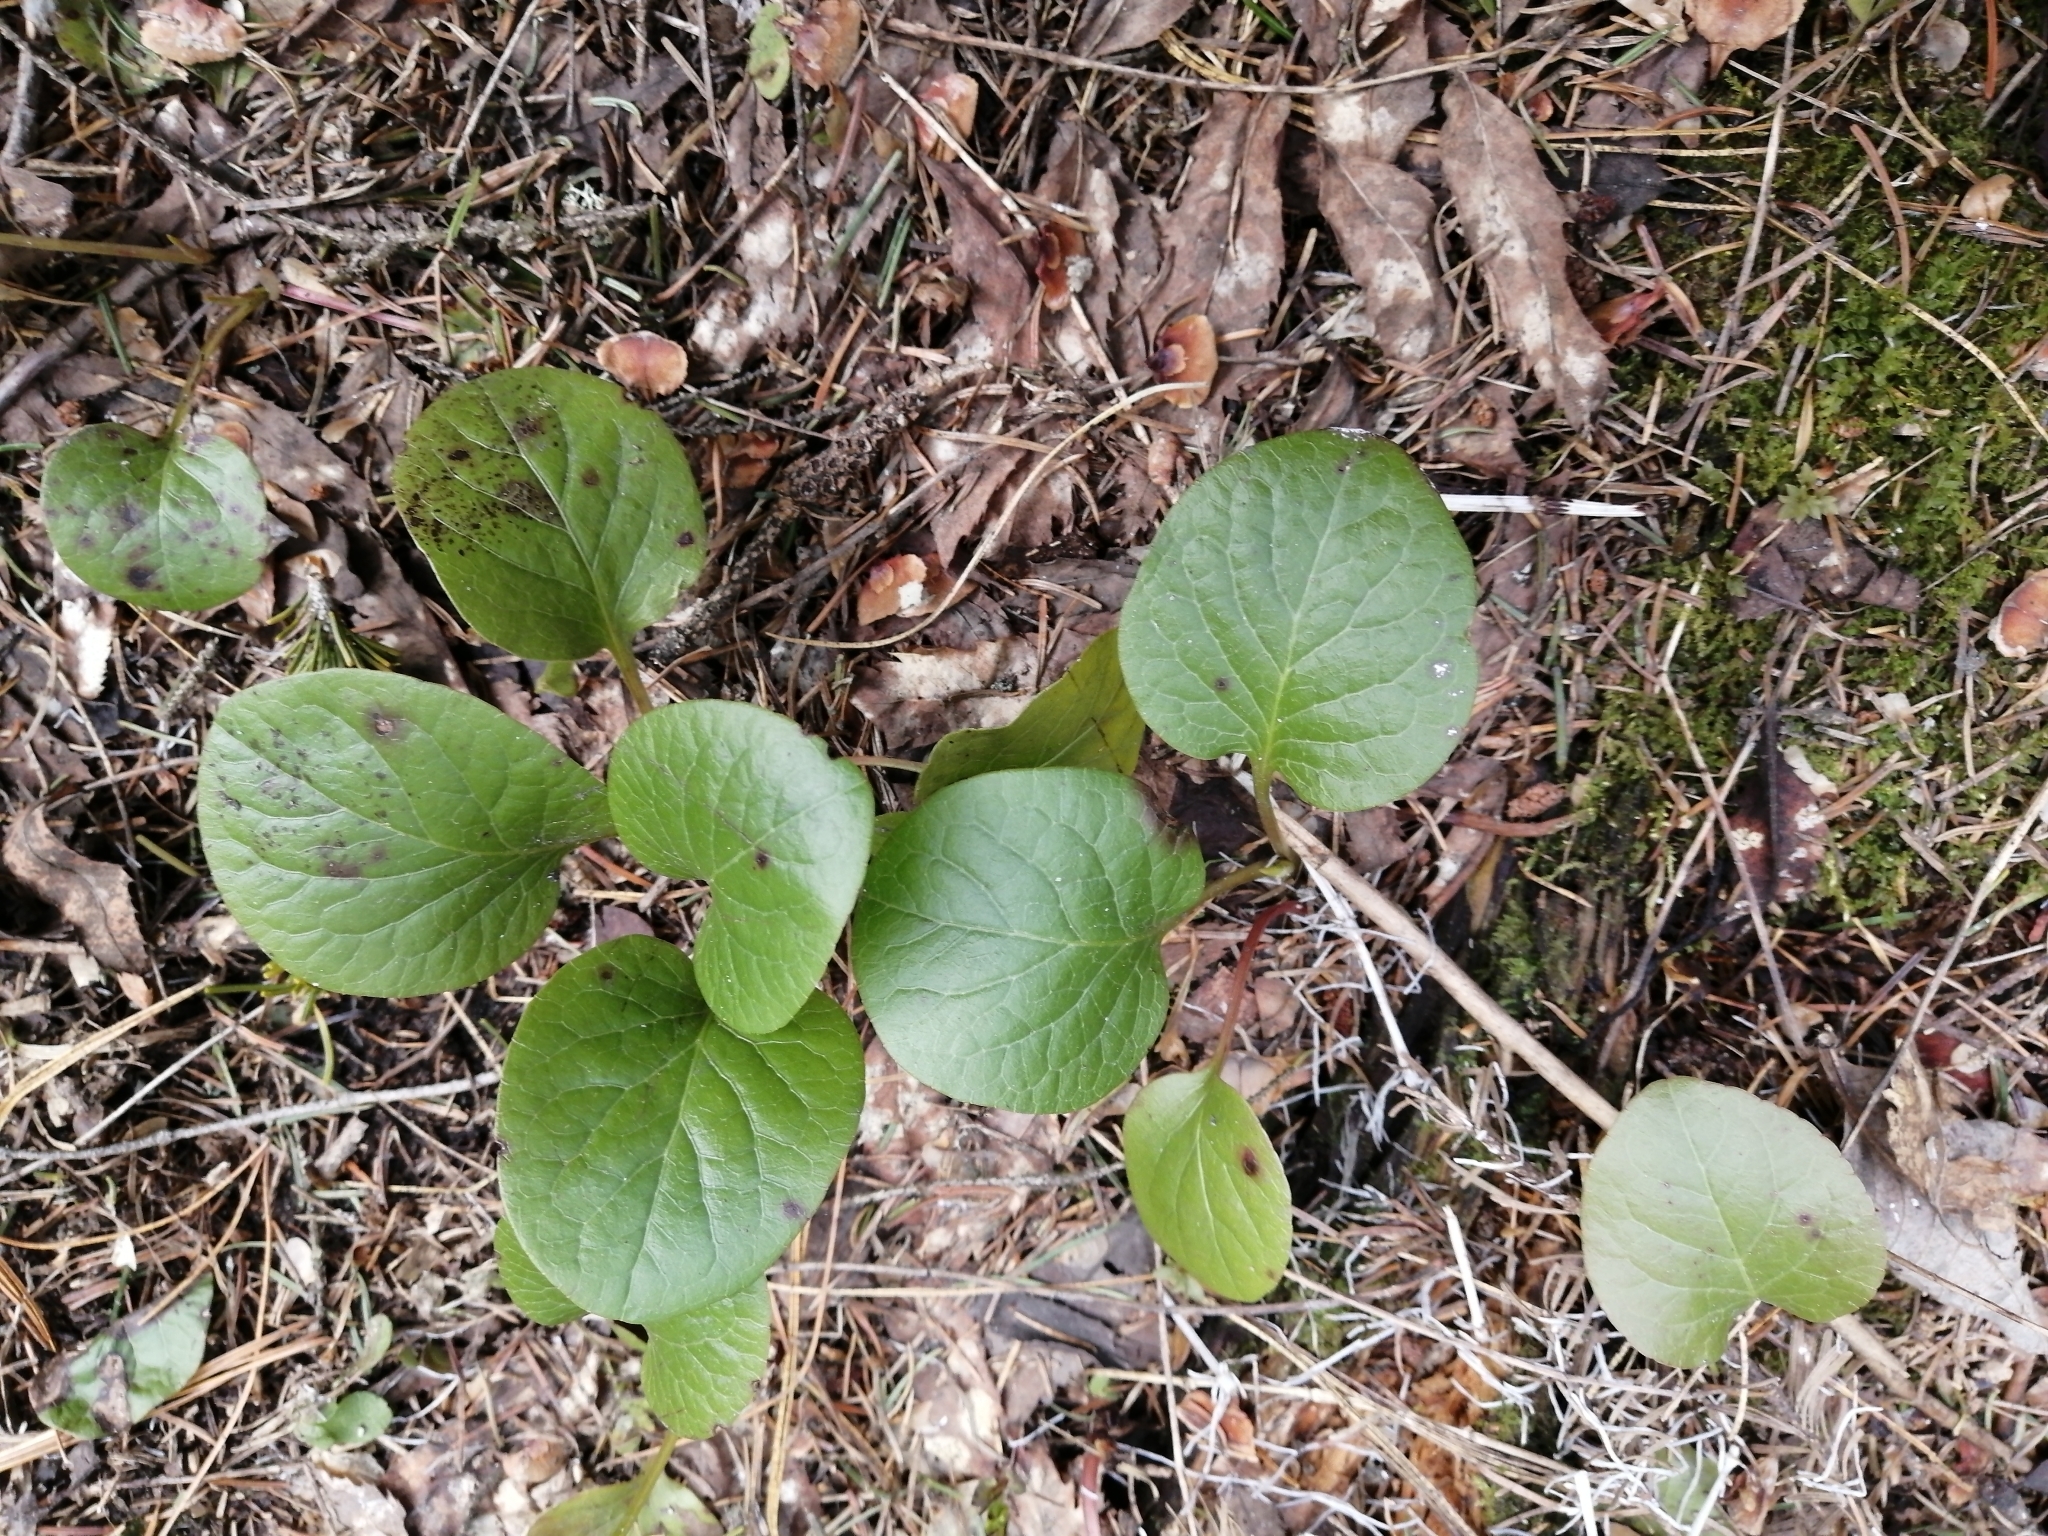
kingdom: Plantae
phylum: Tracheophyta
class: Magnoliopsida
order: Ericales
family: Ericaceae
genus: Pyrola
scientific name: Pyrola rotundifolia
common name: Round-leaved wintergreen
